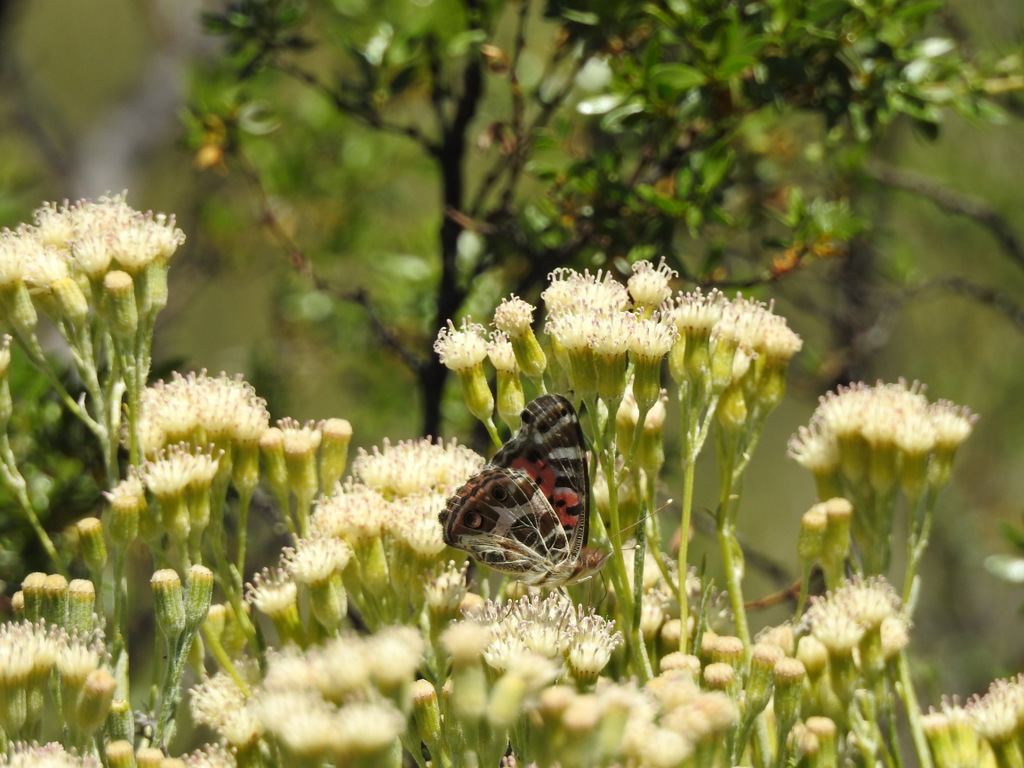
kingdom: Animalia
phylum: Arthropoda
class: Insecta
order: Lepidoptera
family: Nymphalidae
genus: Vanessa
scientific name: Vanessa braziliensis
